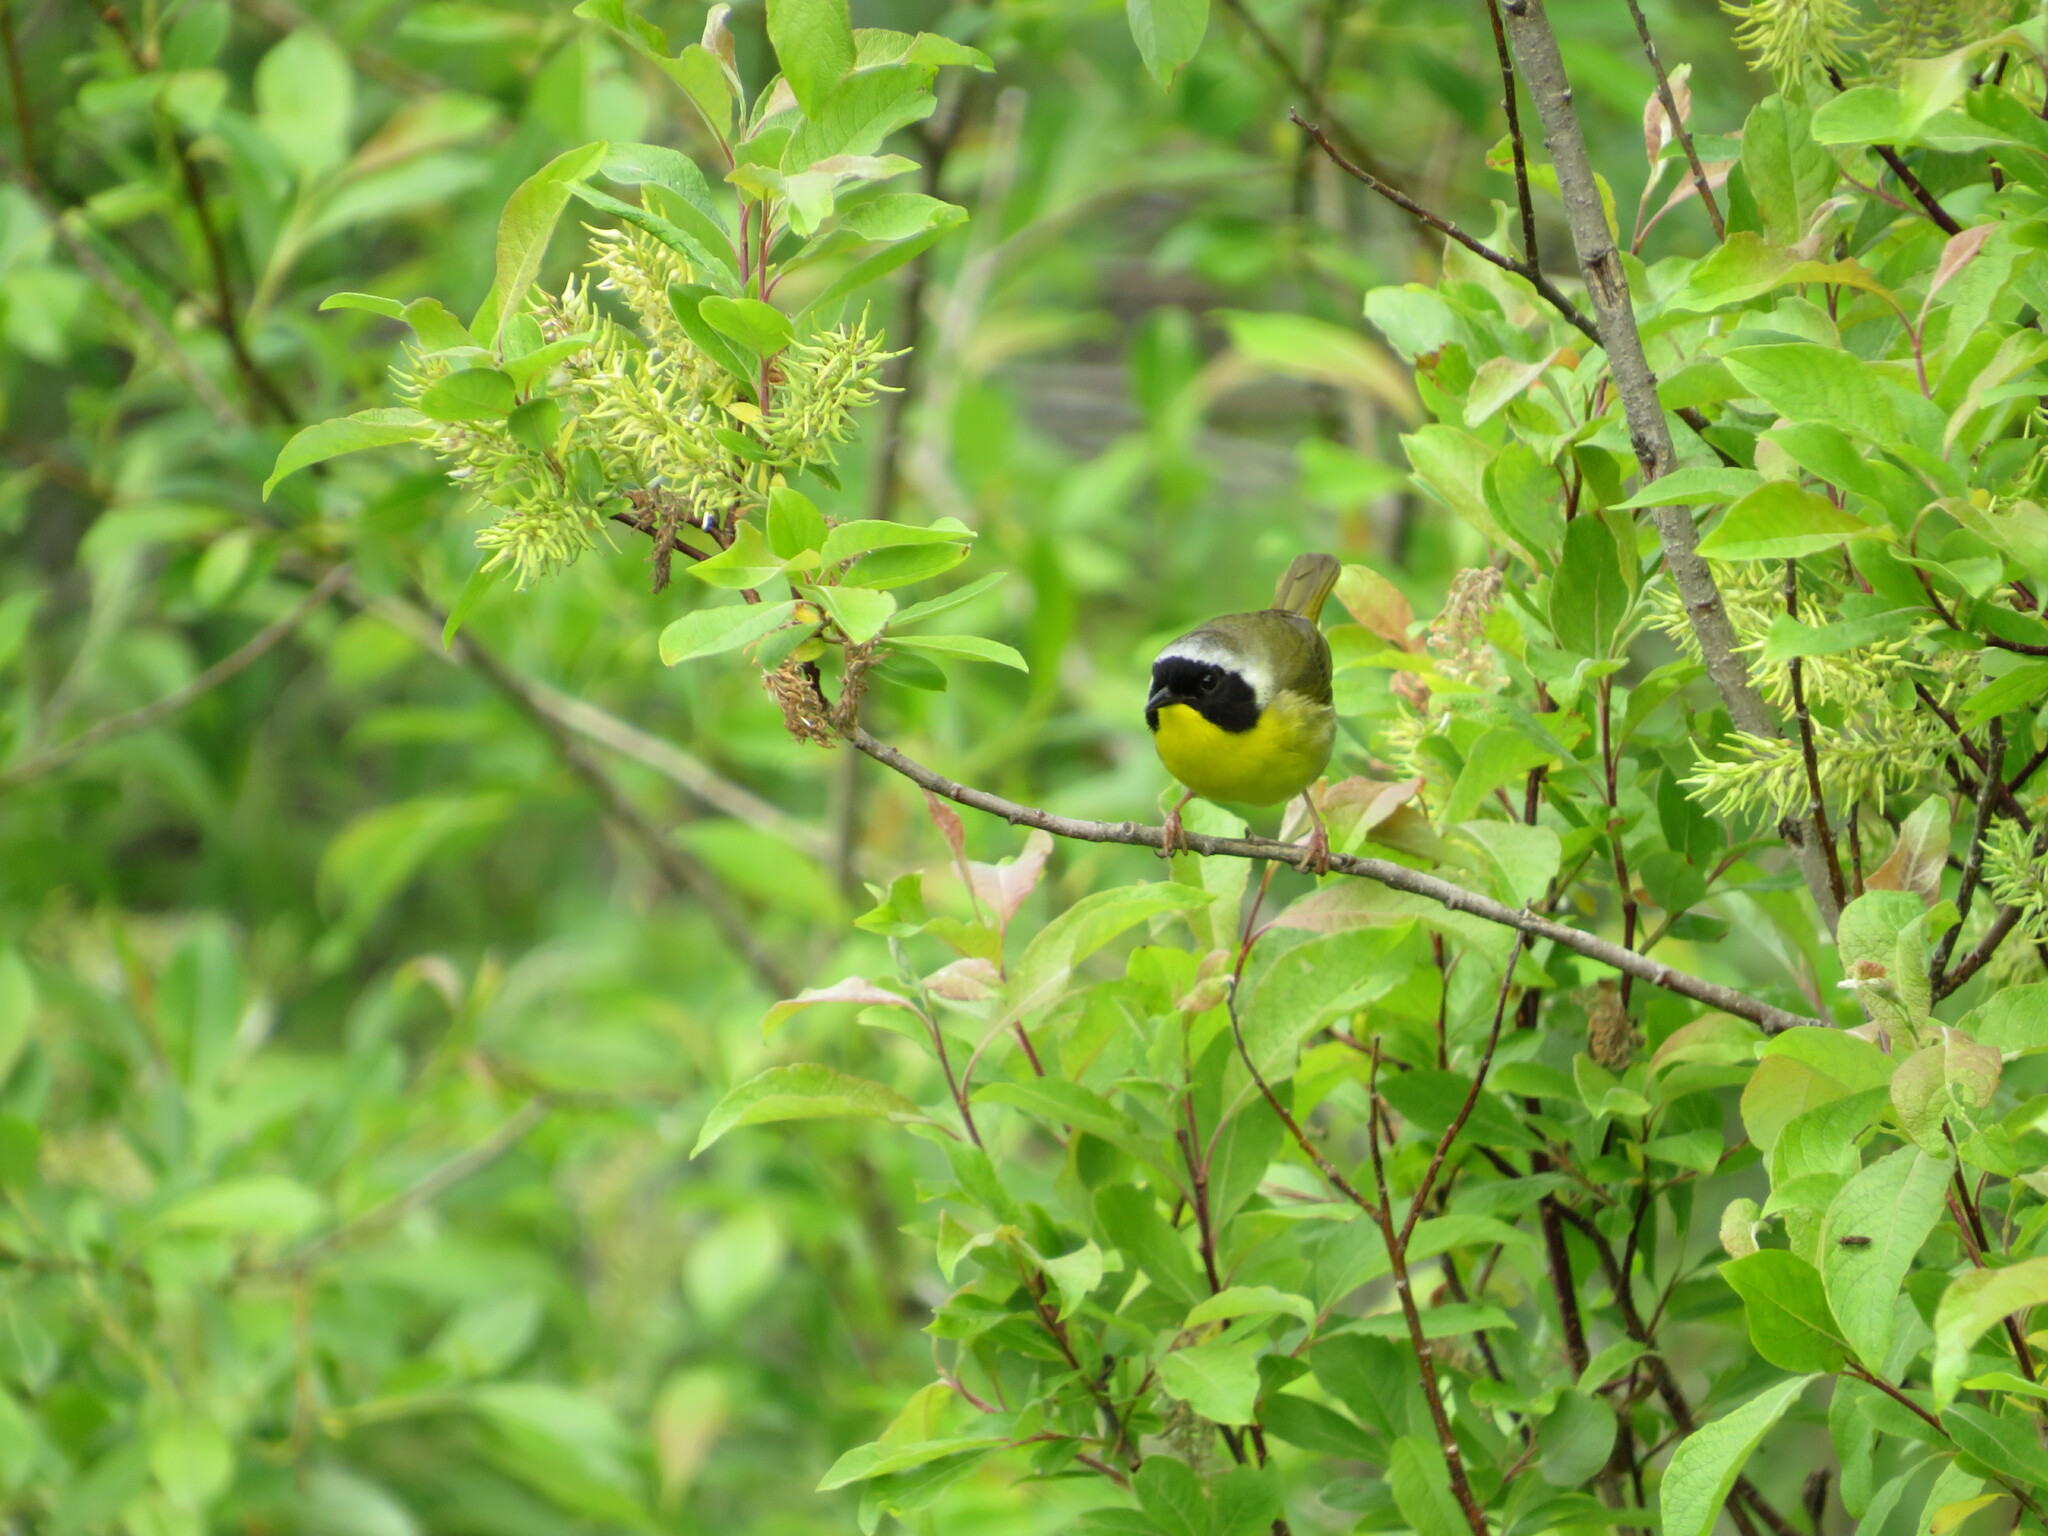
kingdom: Animalia
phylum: Chordata
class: Aves
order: Passeriformes
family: Parulidae
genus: Geothlypis
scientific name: Geothlypis trichas
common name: Common yellowthroat
